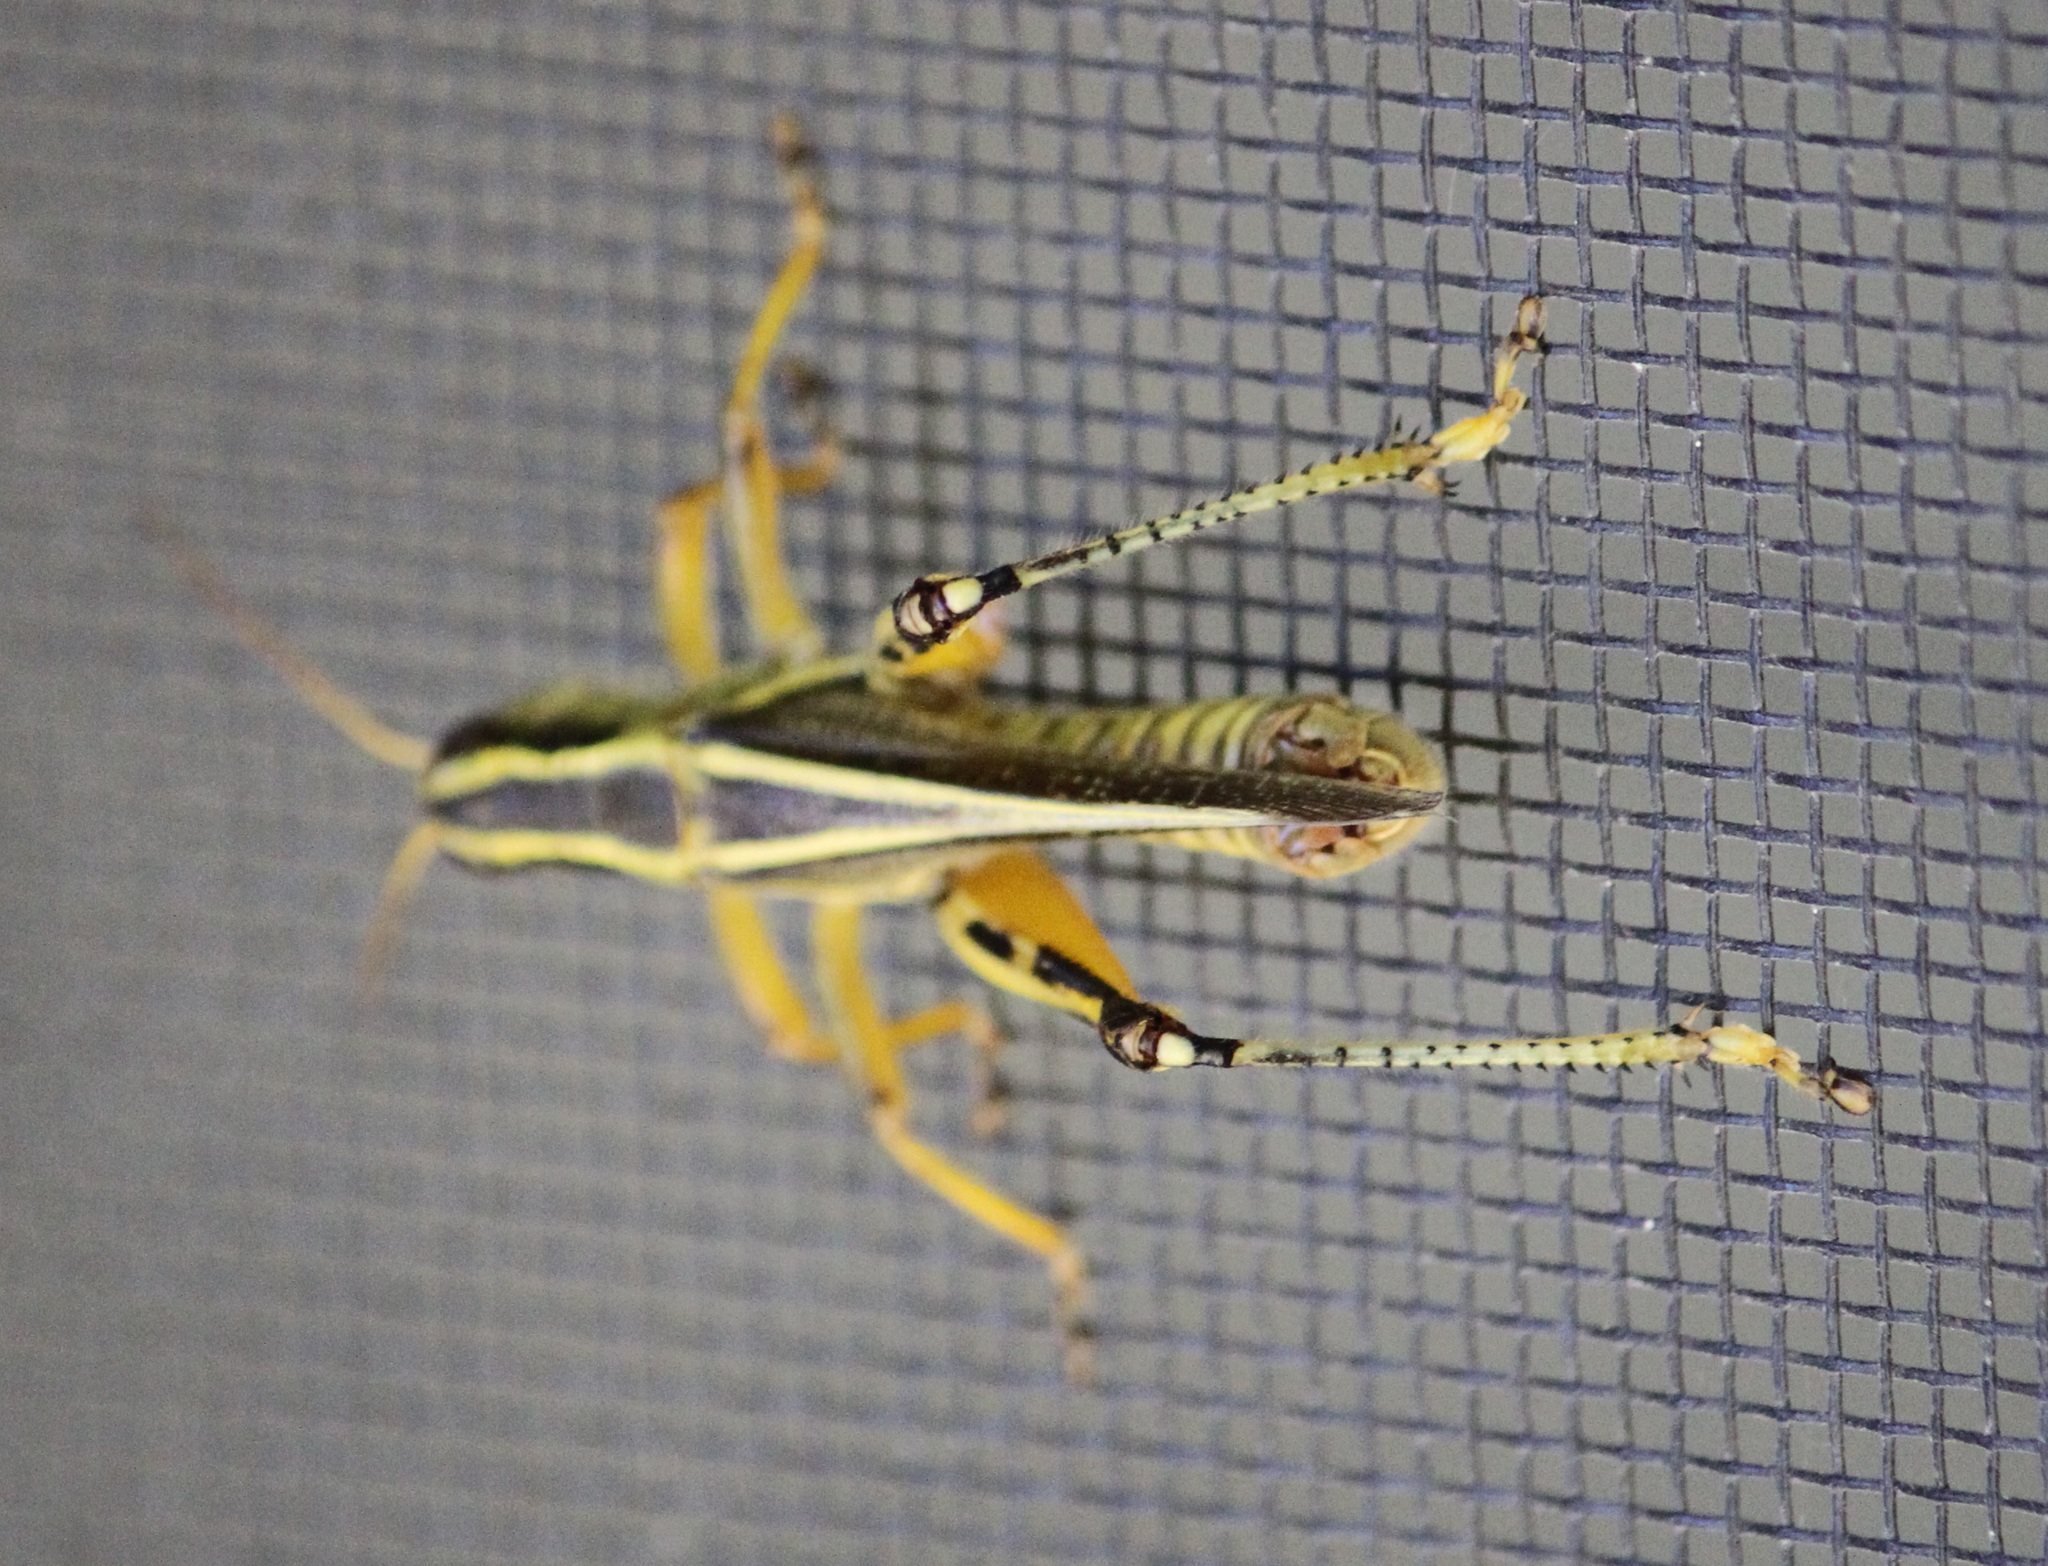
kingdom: Animalia
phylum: Arthropoda
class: Insecta
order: Orthoptera
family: Acrididae
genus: Melanoplus
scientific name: Melanoplus bivittatus
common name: Two-striped grasshopper
